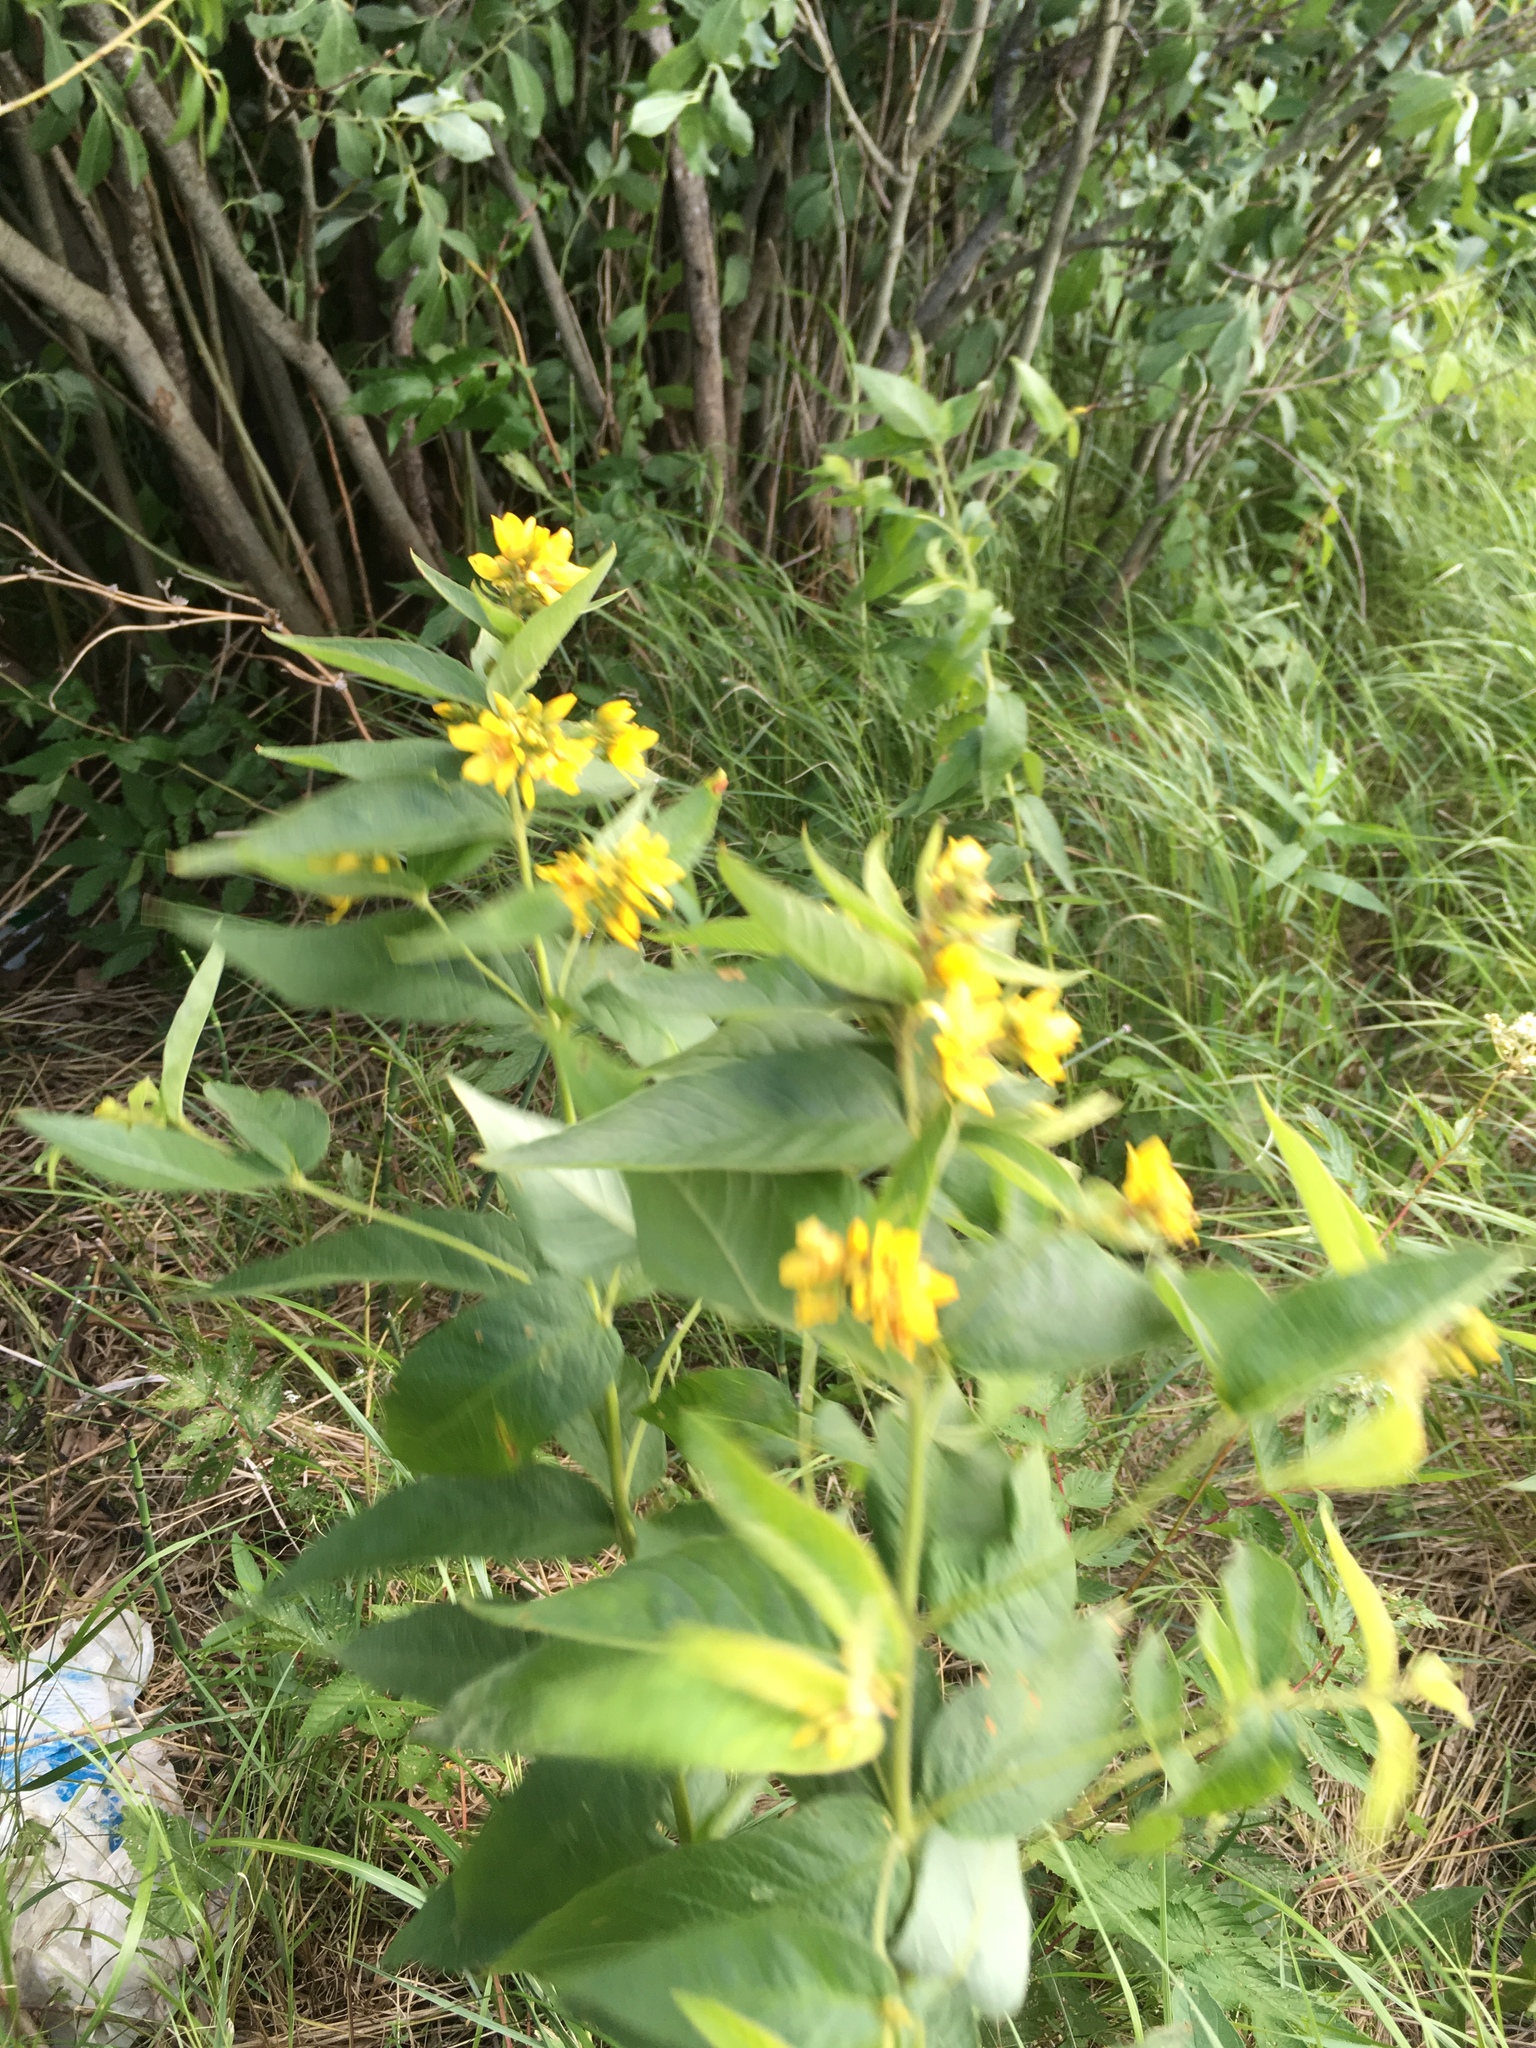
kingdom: Plantae
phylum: Tracheophyta
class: Magnoliopsida
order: Ericales
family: Primulaceae
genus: Lysimachia
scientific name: Lysimachia vulgaris
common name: Yellow loosestrife
